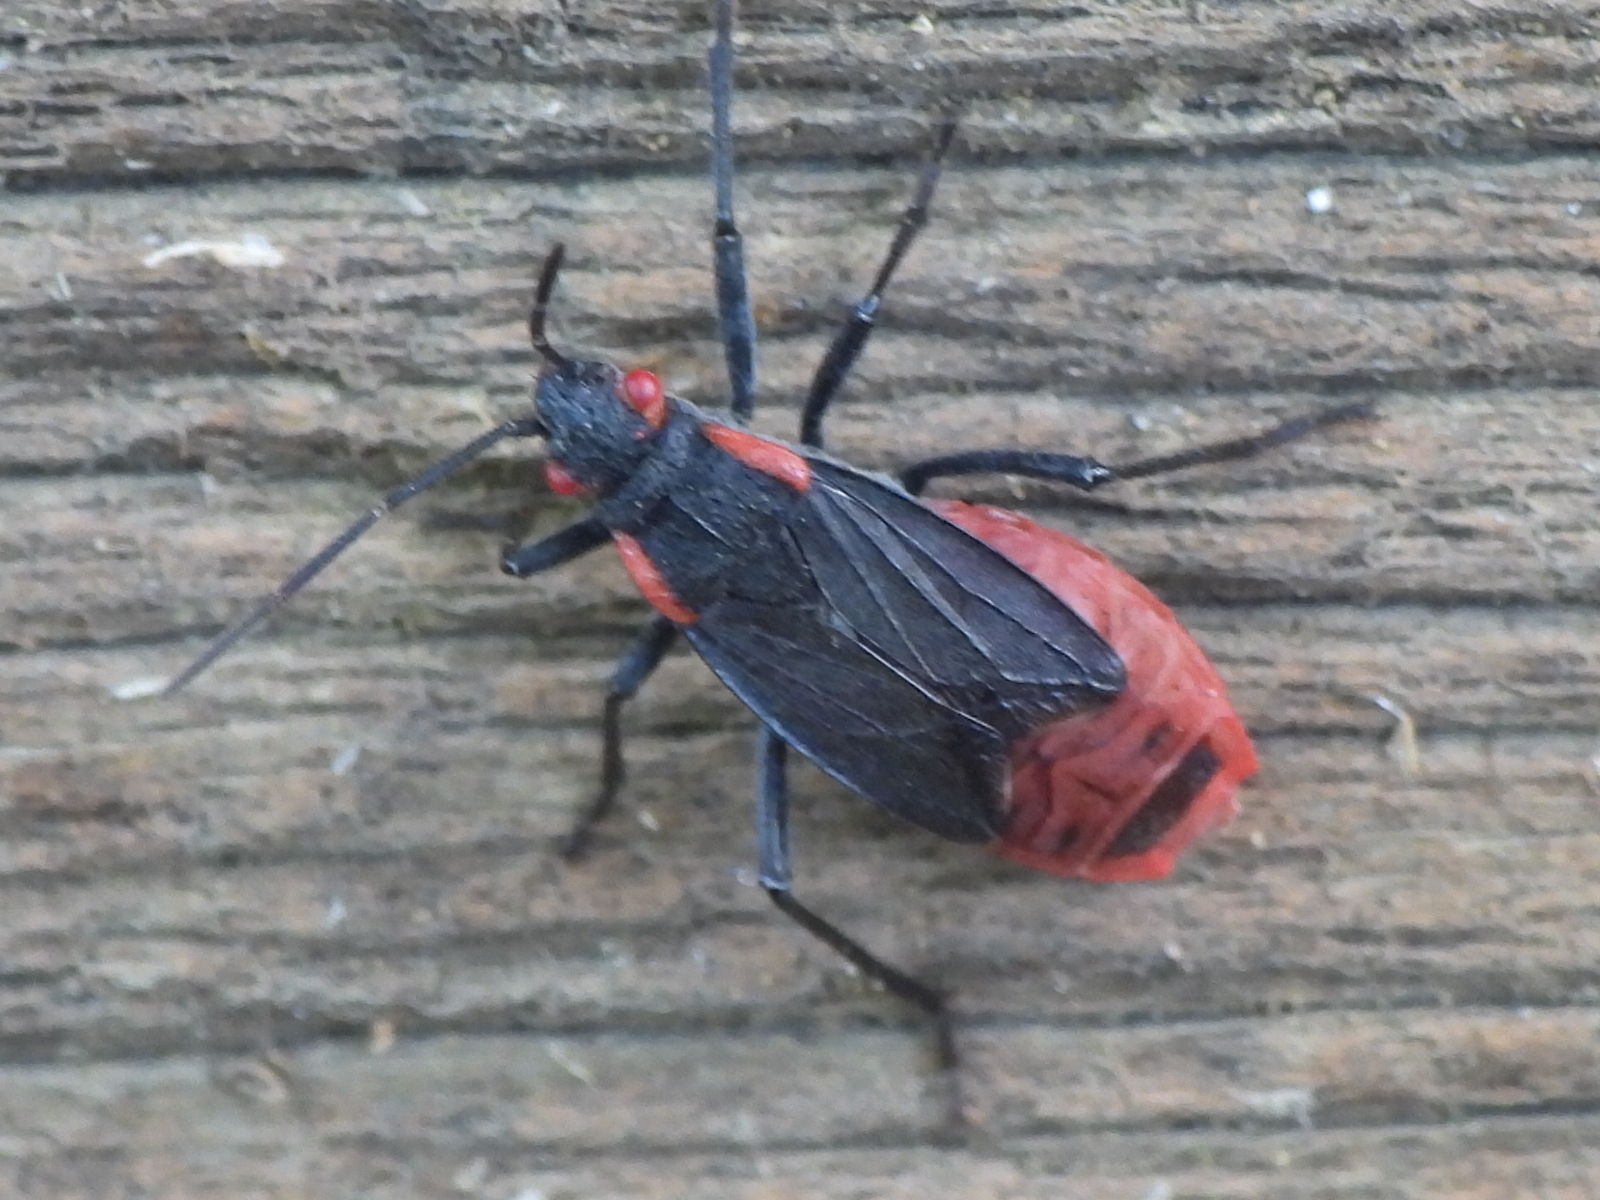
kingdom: Animalia
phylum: Arthropoda
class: Insecta
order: Hemiptera
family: Rhopalidae
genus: Jadera
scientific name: Jadera haematoloma
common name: Red-shouldered bug
